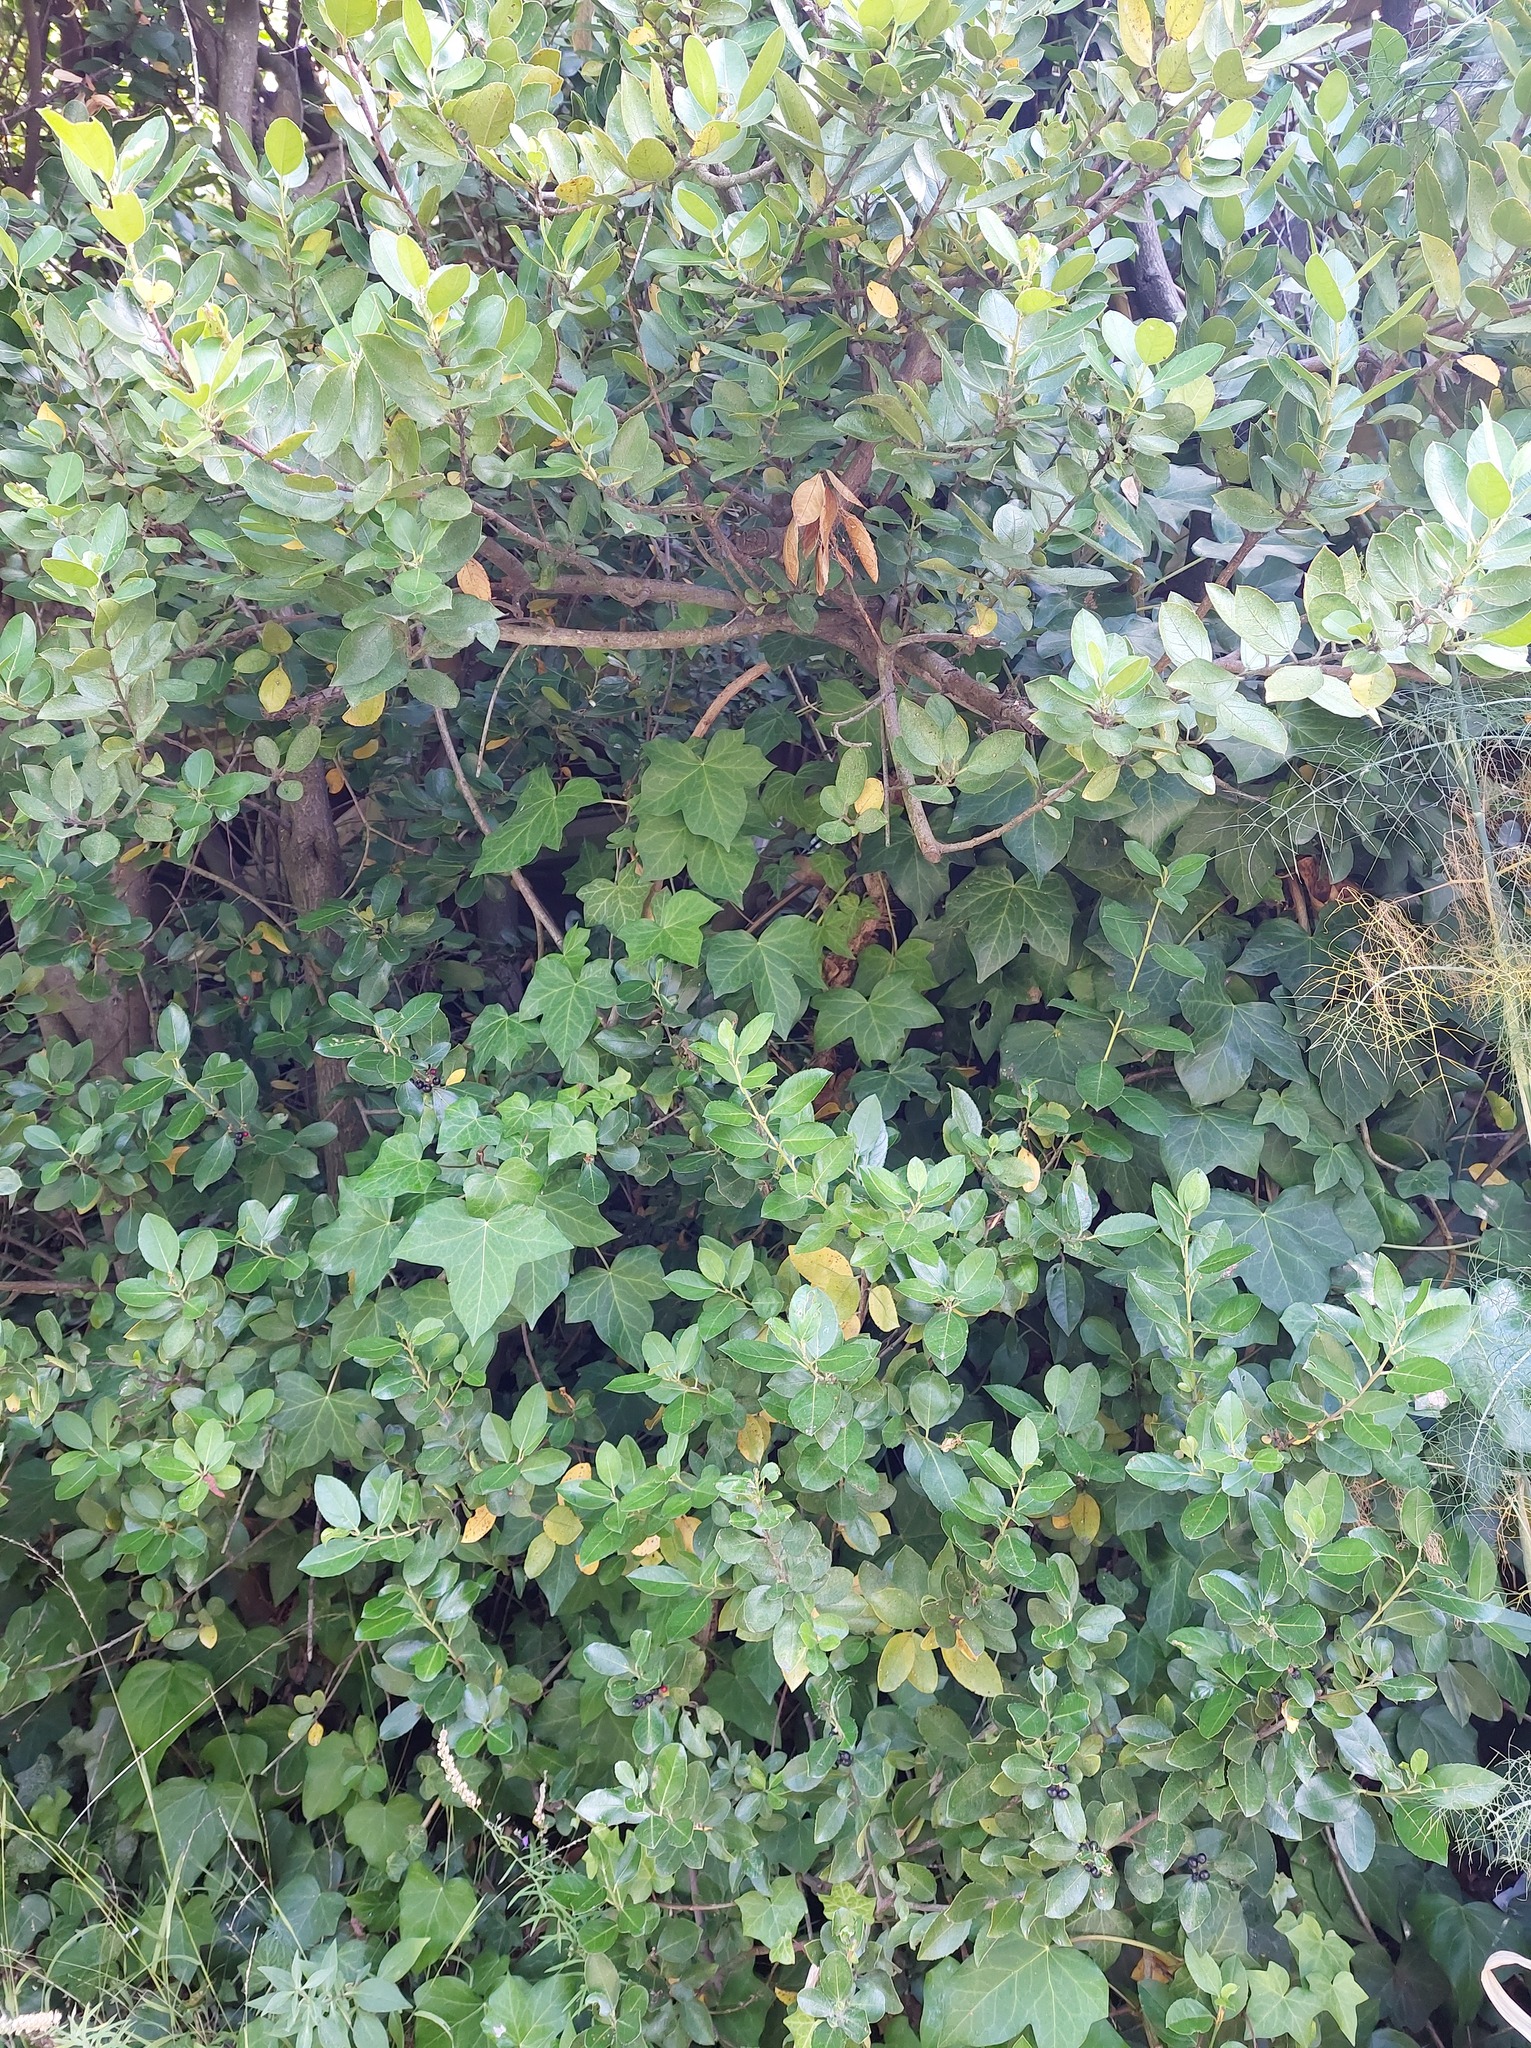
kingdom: Plantae
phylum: Tracheophyta
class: Magnoliopsida
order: Rosales
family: Rhamnaceae
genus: Rhamnus
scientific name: Rhamnus alaternus
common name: Mediterranean buckthorn
